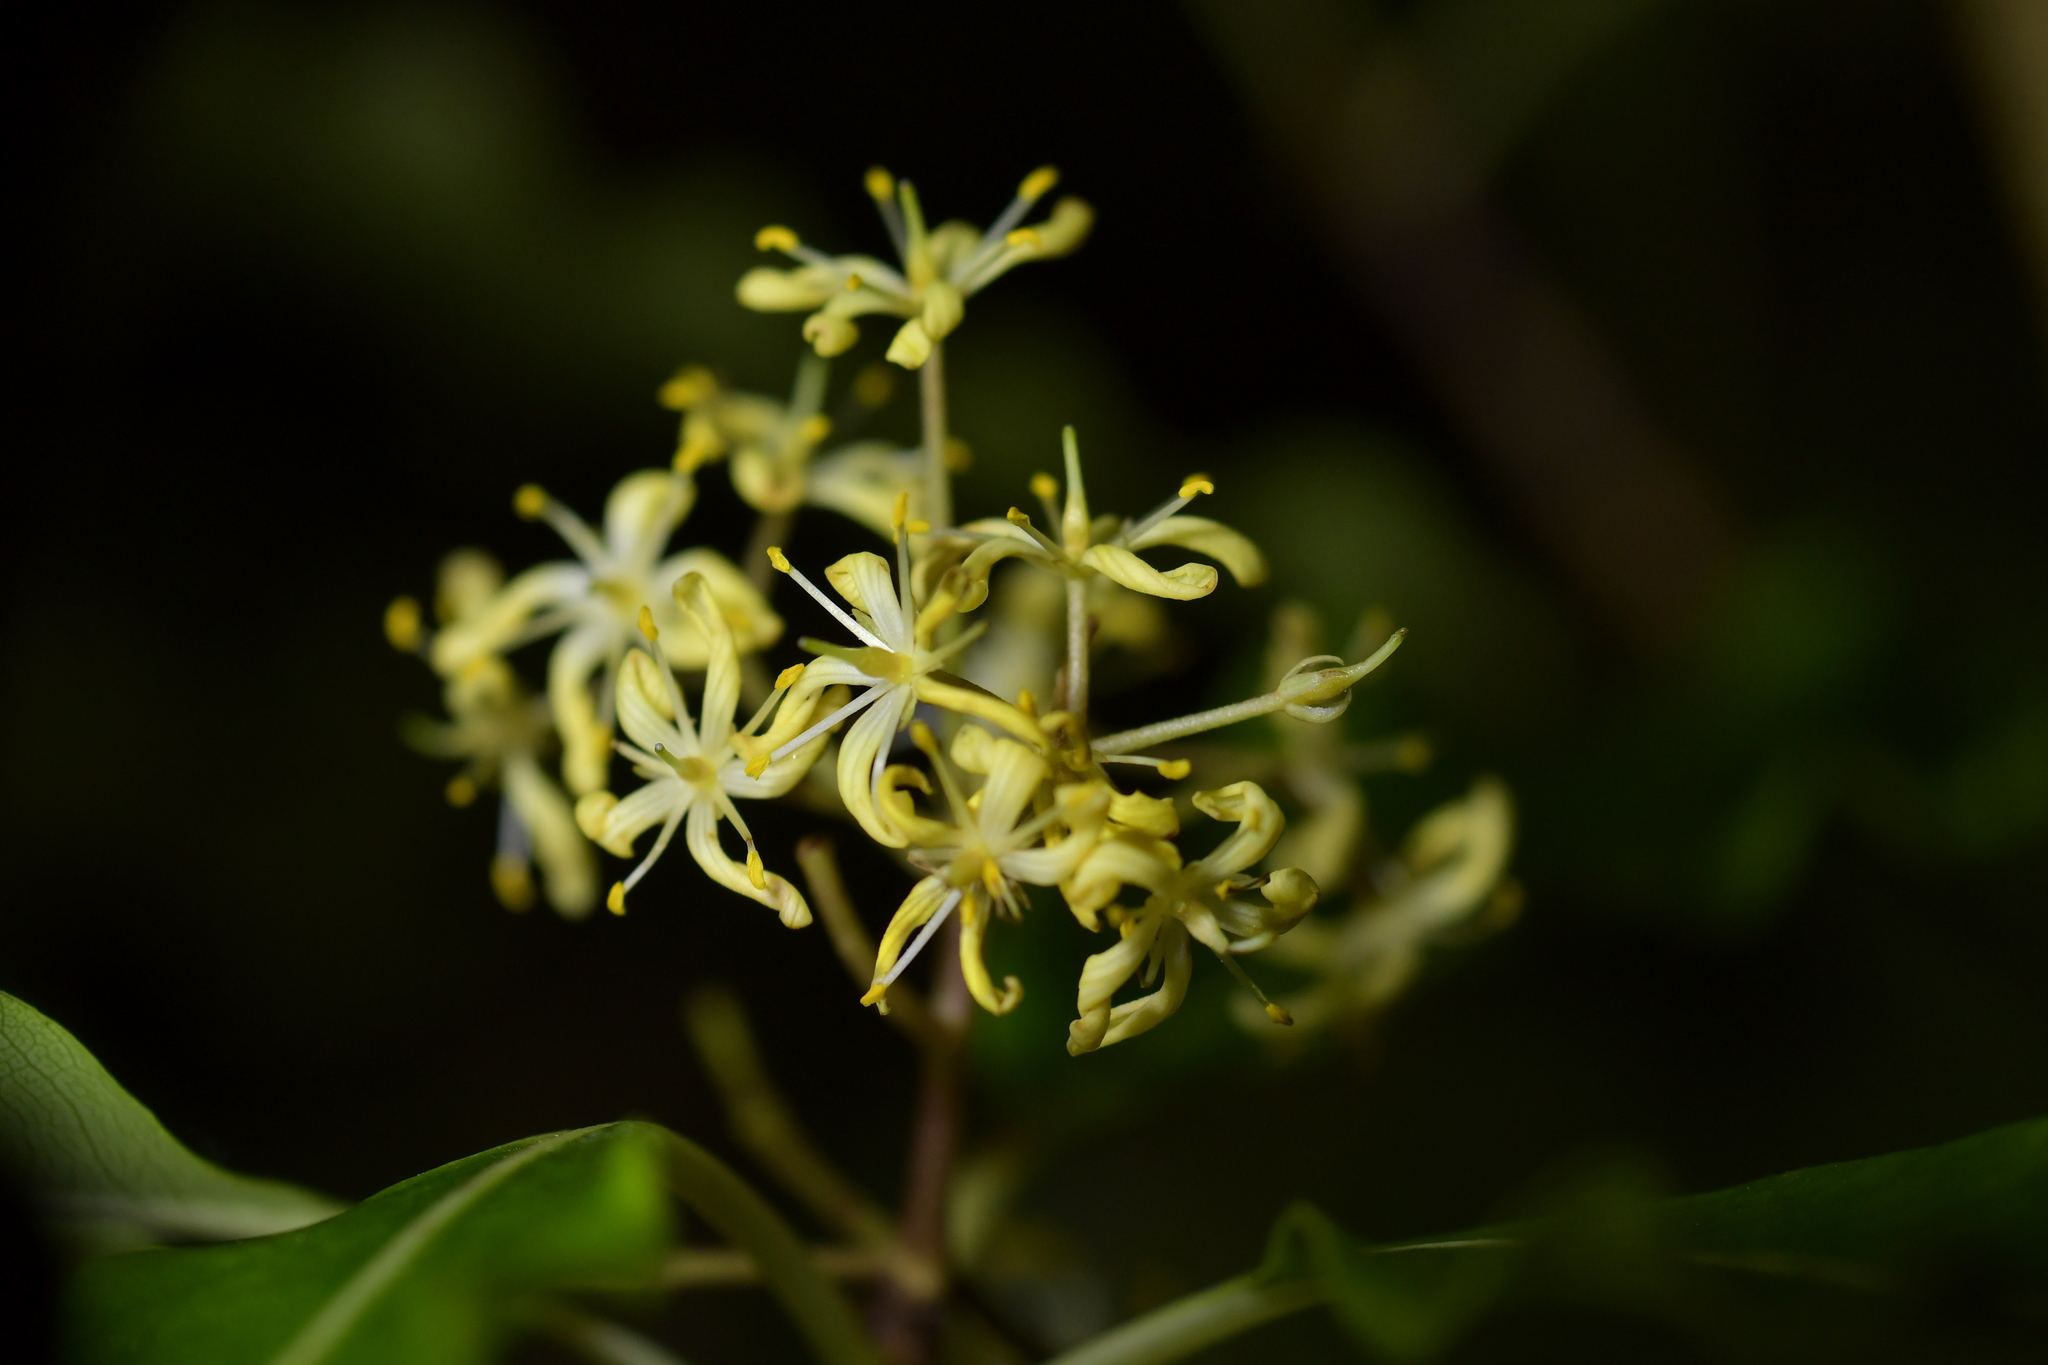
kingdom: Plantae
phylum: Tracheophyta
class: Magnoliopsida
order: Apiales
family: Pittosporaceae
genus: Pittosporum
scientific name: Pittosporum eugenioides
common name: Lemonwood
